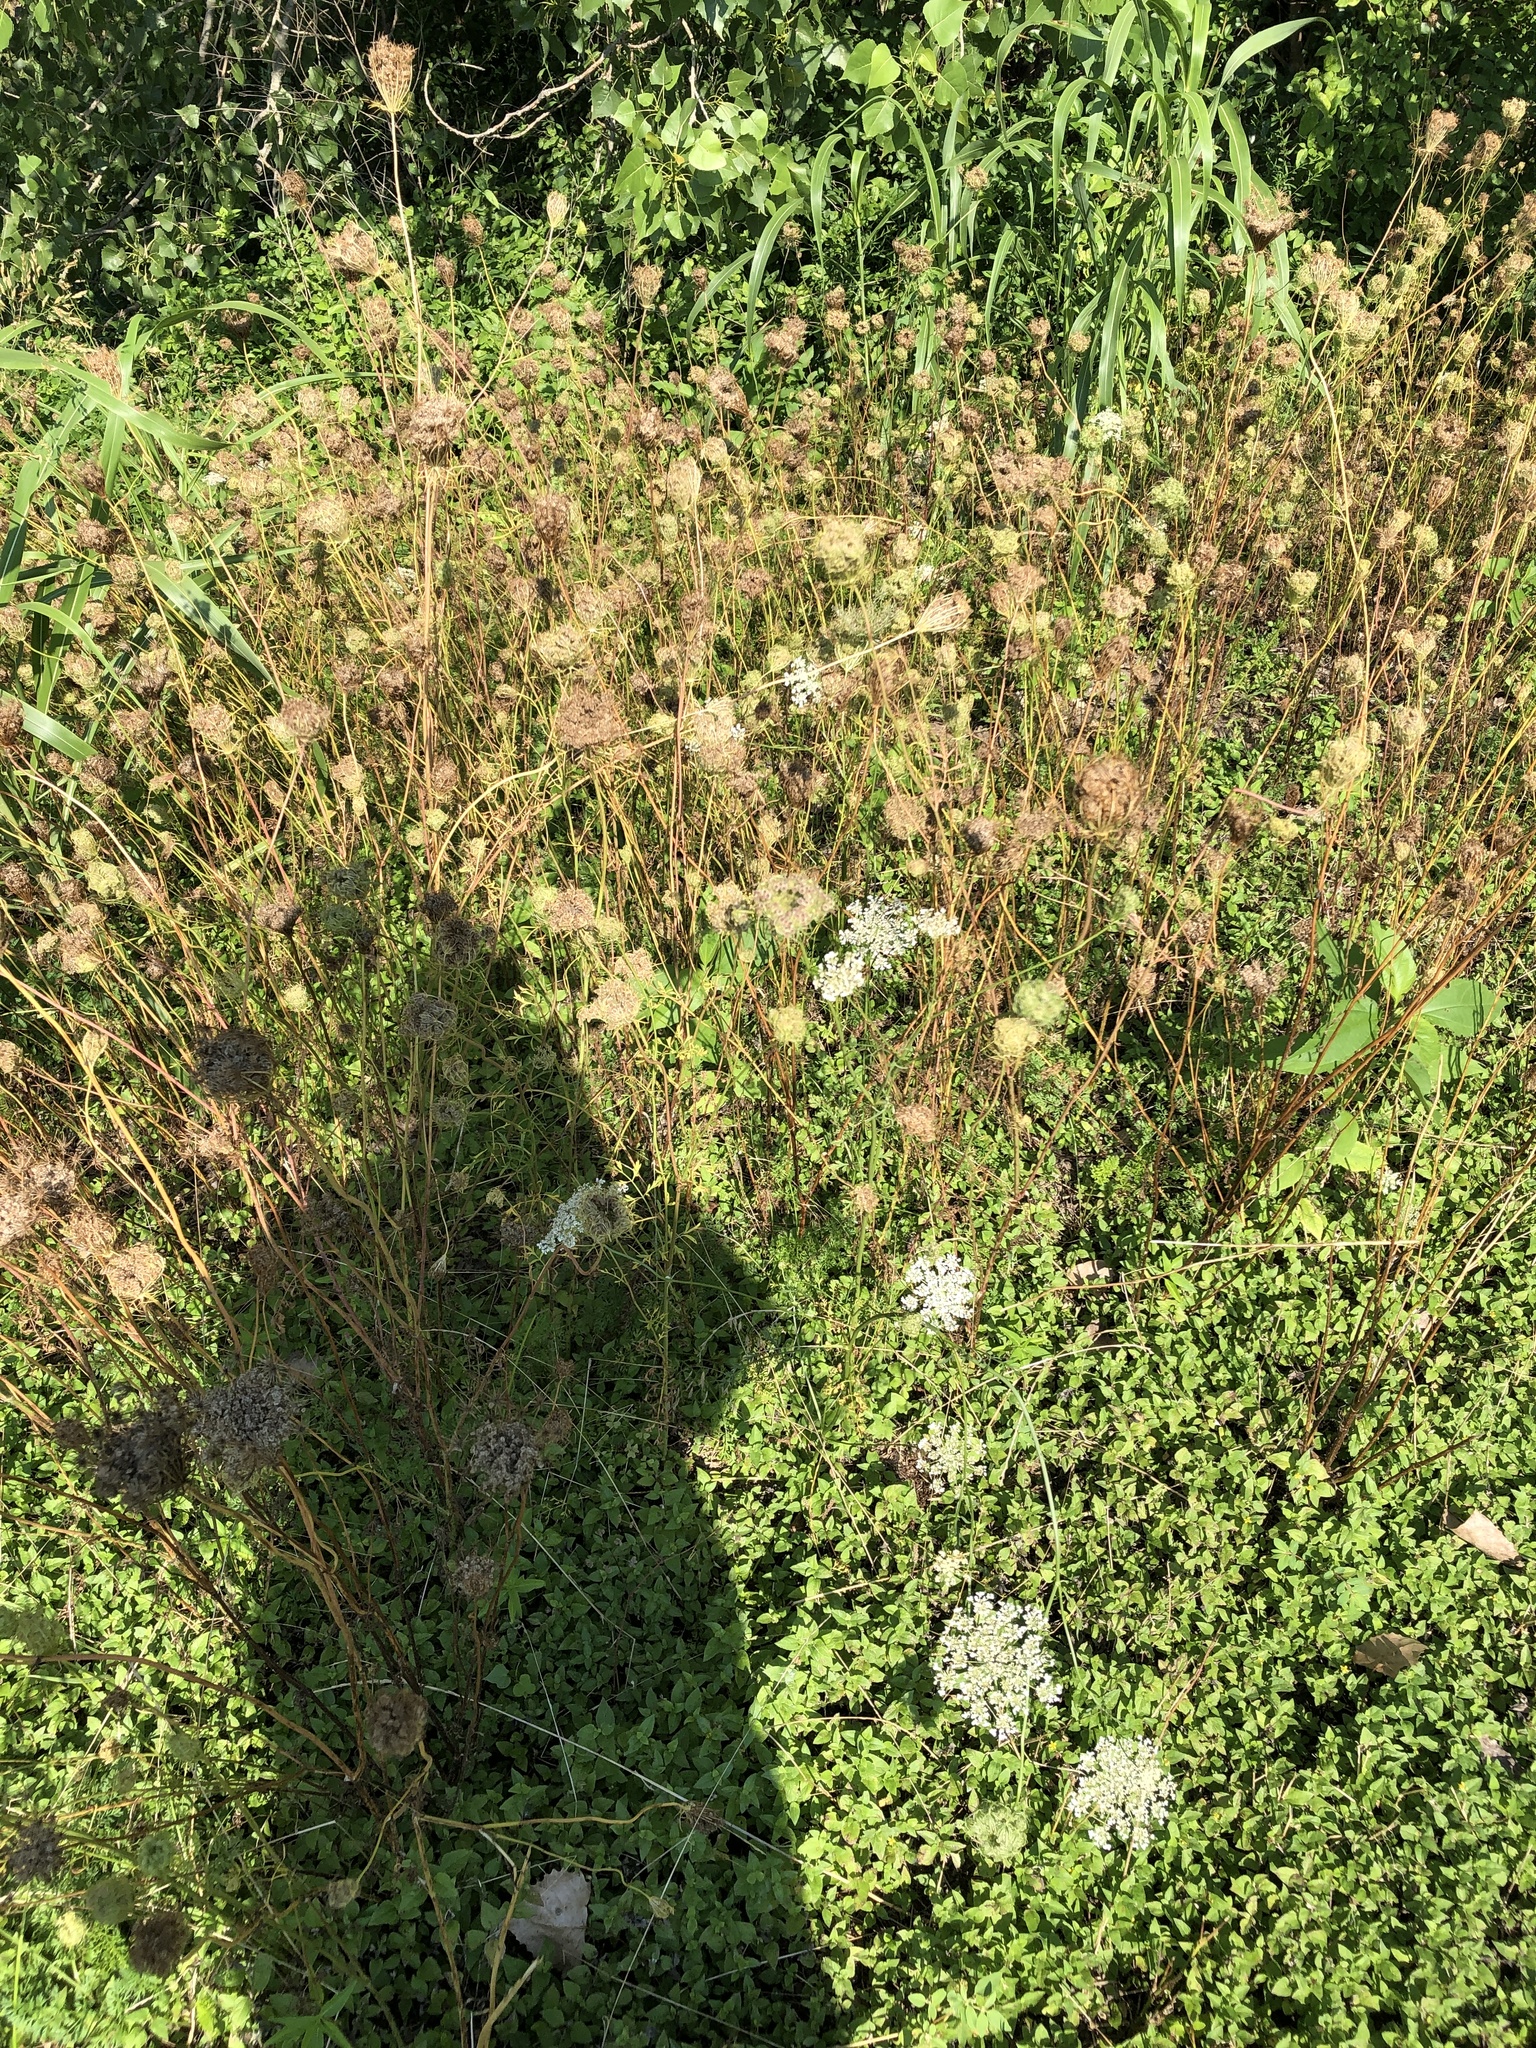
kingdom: Plantae
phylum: Tracheophyta
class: Magnoliopsida
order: Apiales
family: Apiaceae
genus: Daucus
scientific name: Daucus carota
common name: Wild carrot
